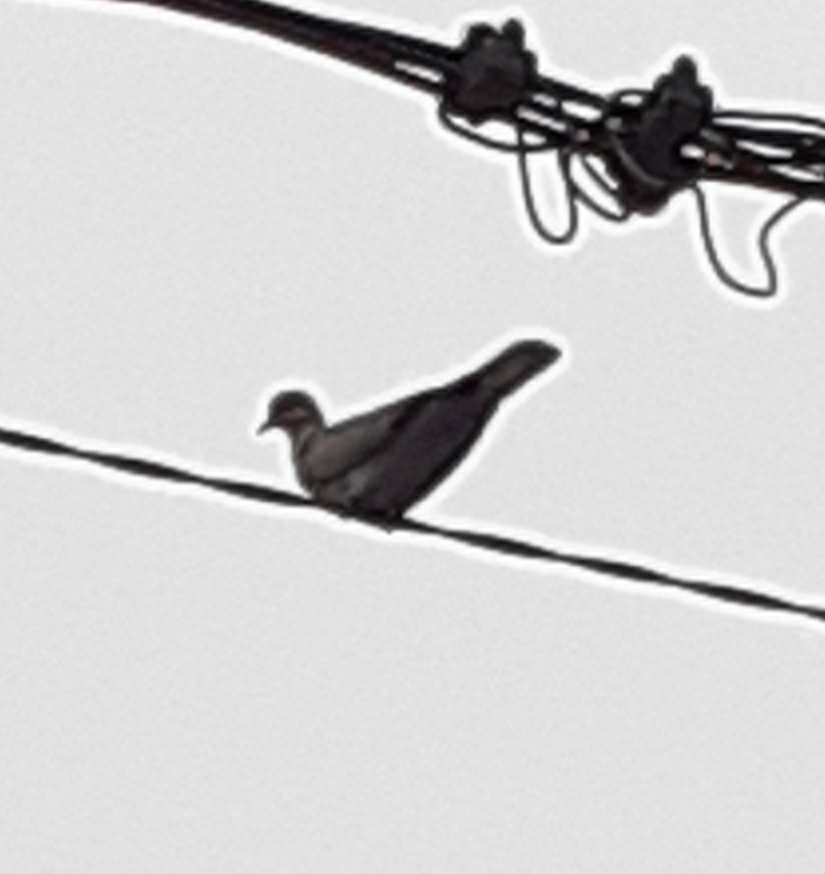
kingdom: Animalia
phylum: Chordata
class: Aves
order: Columbiformes
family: Columbidae
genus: Streptopelia
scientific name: Streptopelia decaocto
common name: Eurasian collared dove
